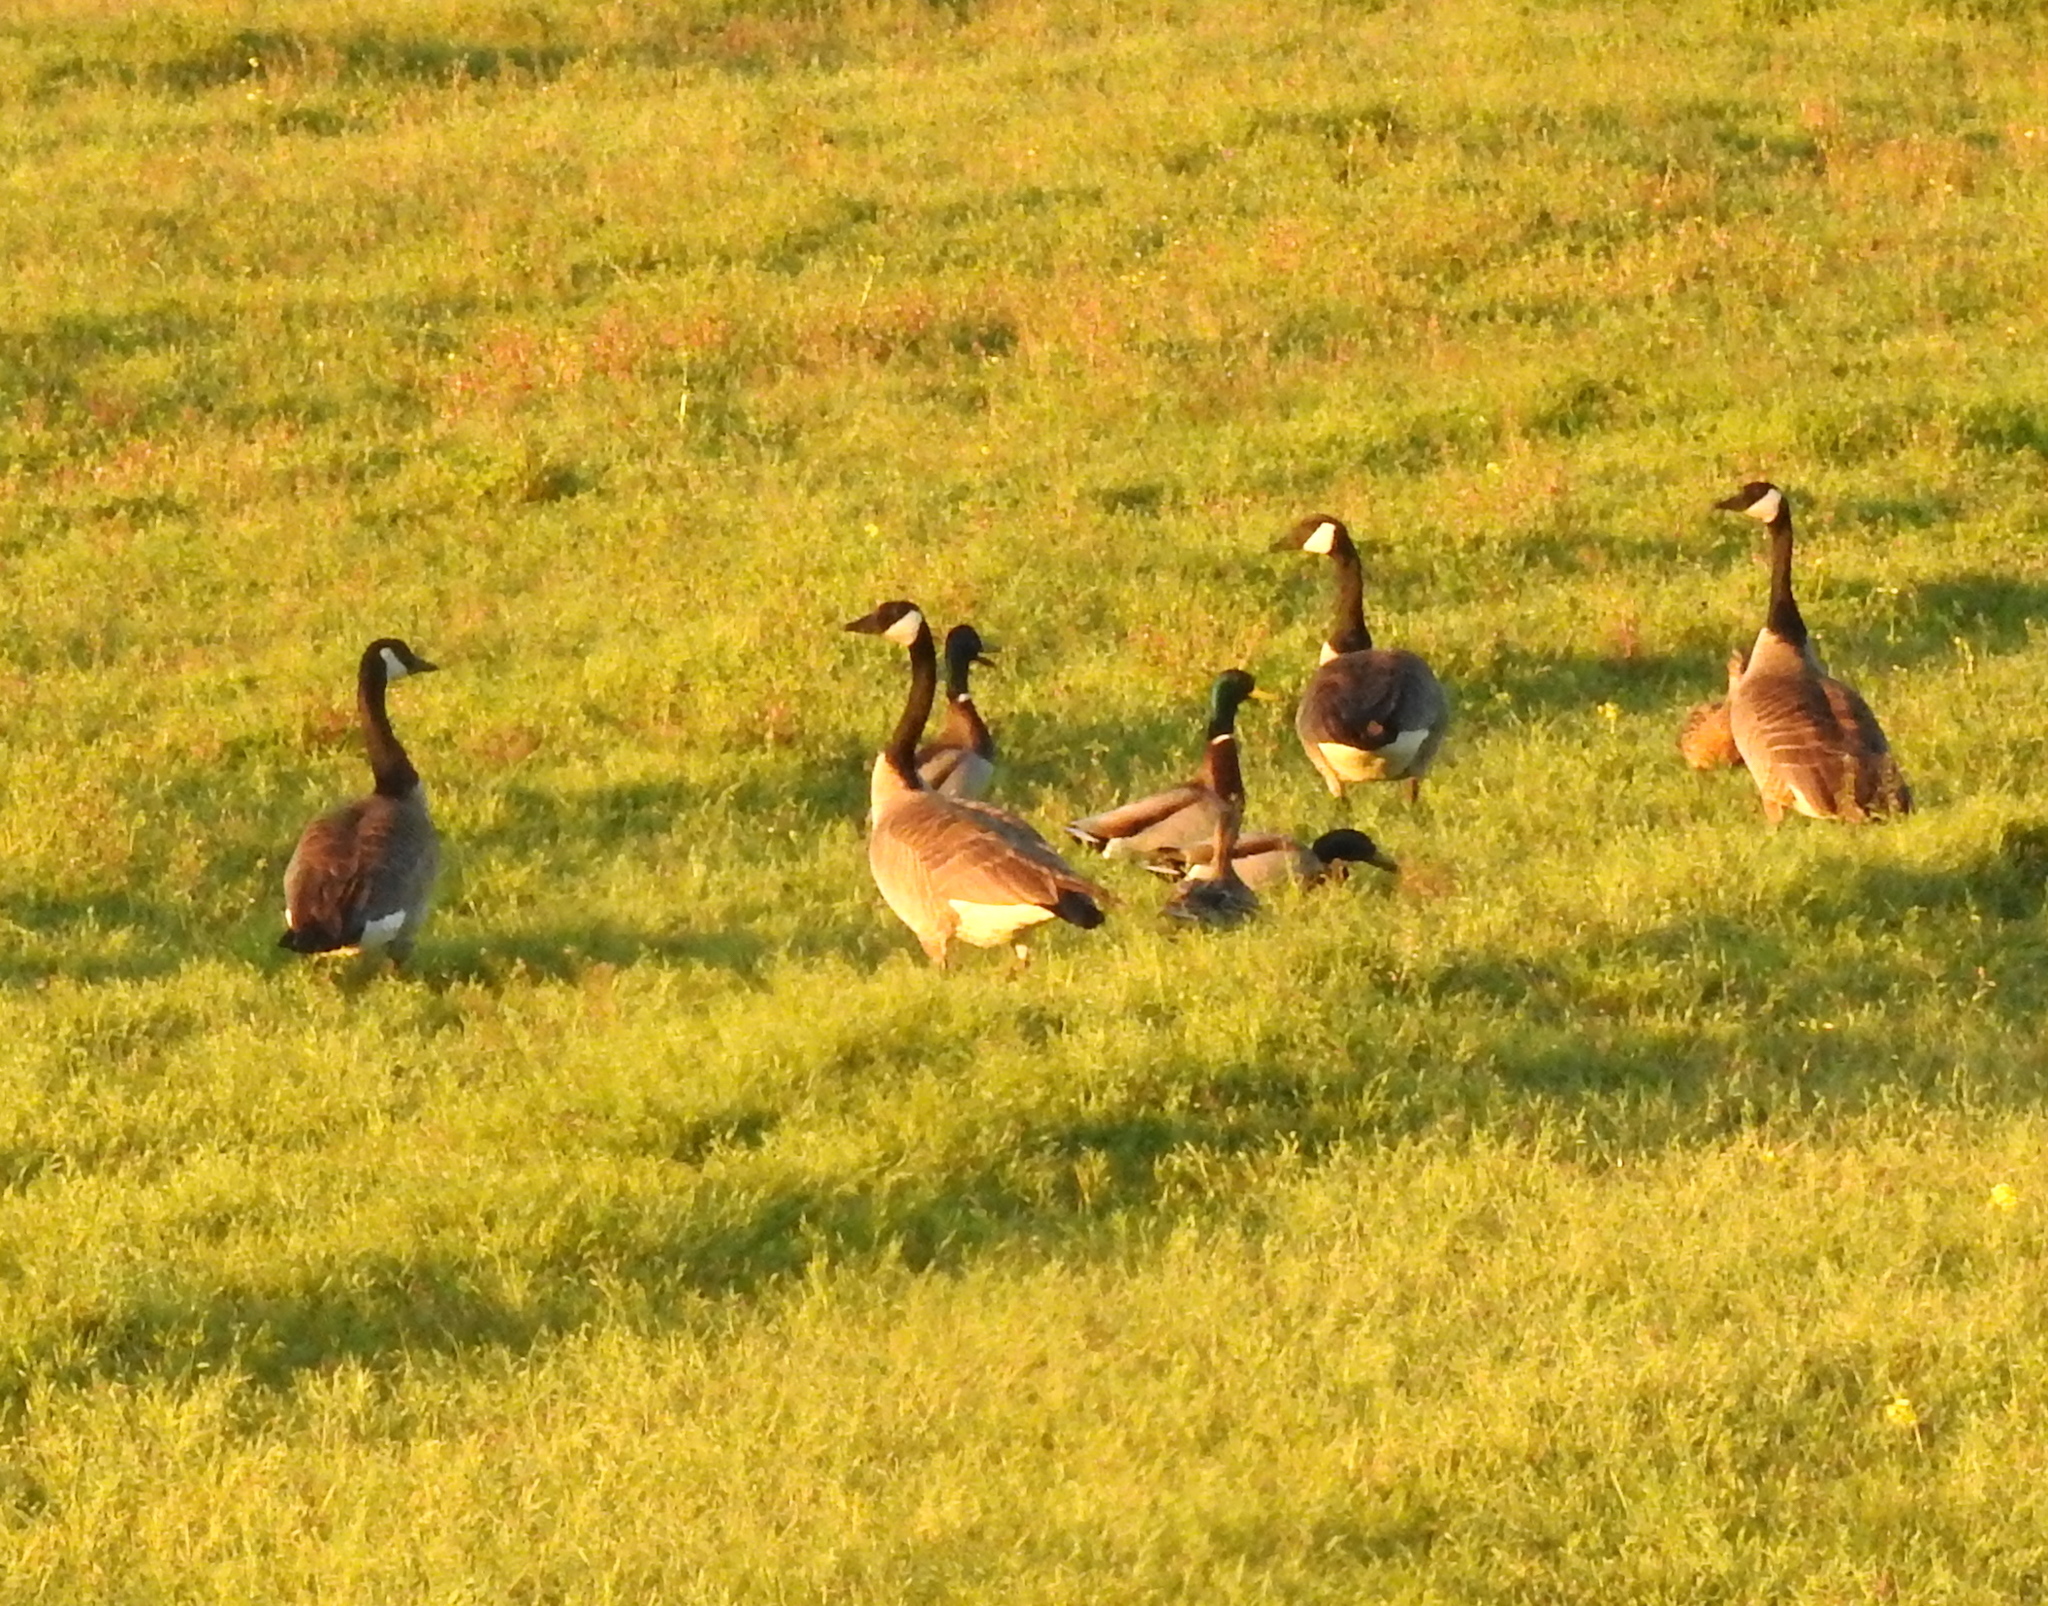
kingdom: Animalia
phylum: Chordata
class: Aves
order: Anseriformes
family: Anatidae
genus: Branta
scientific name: Branta canadensis
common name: Canada goose
